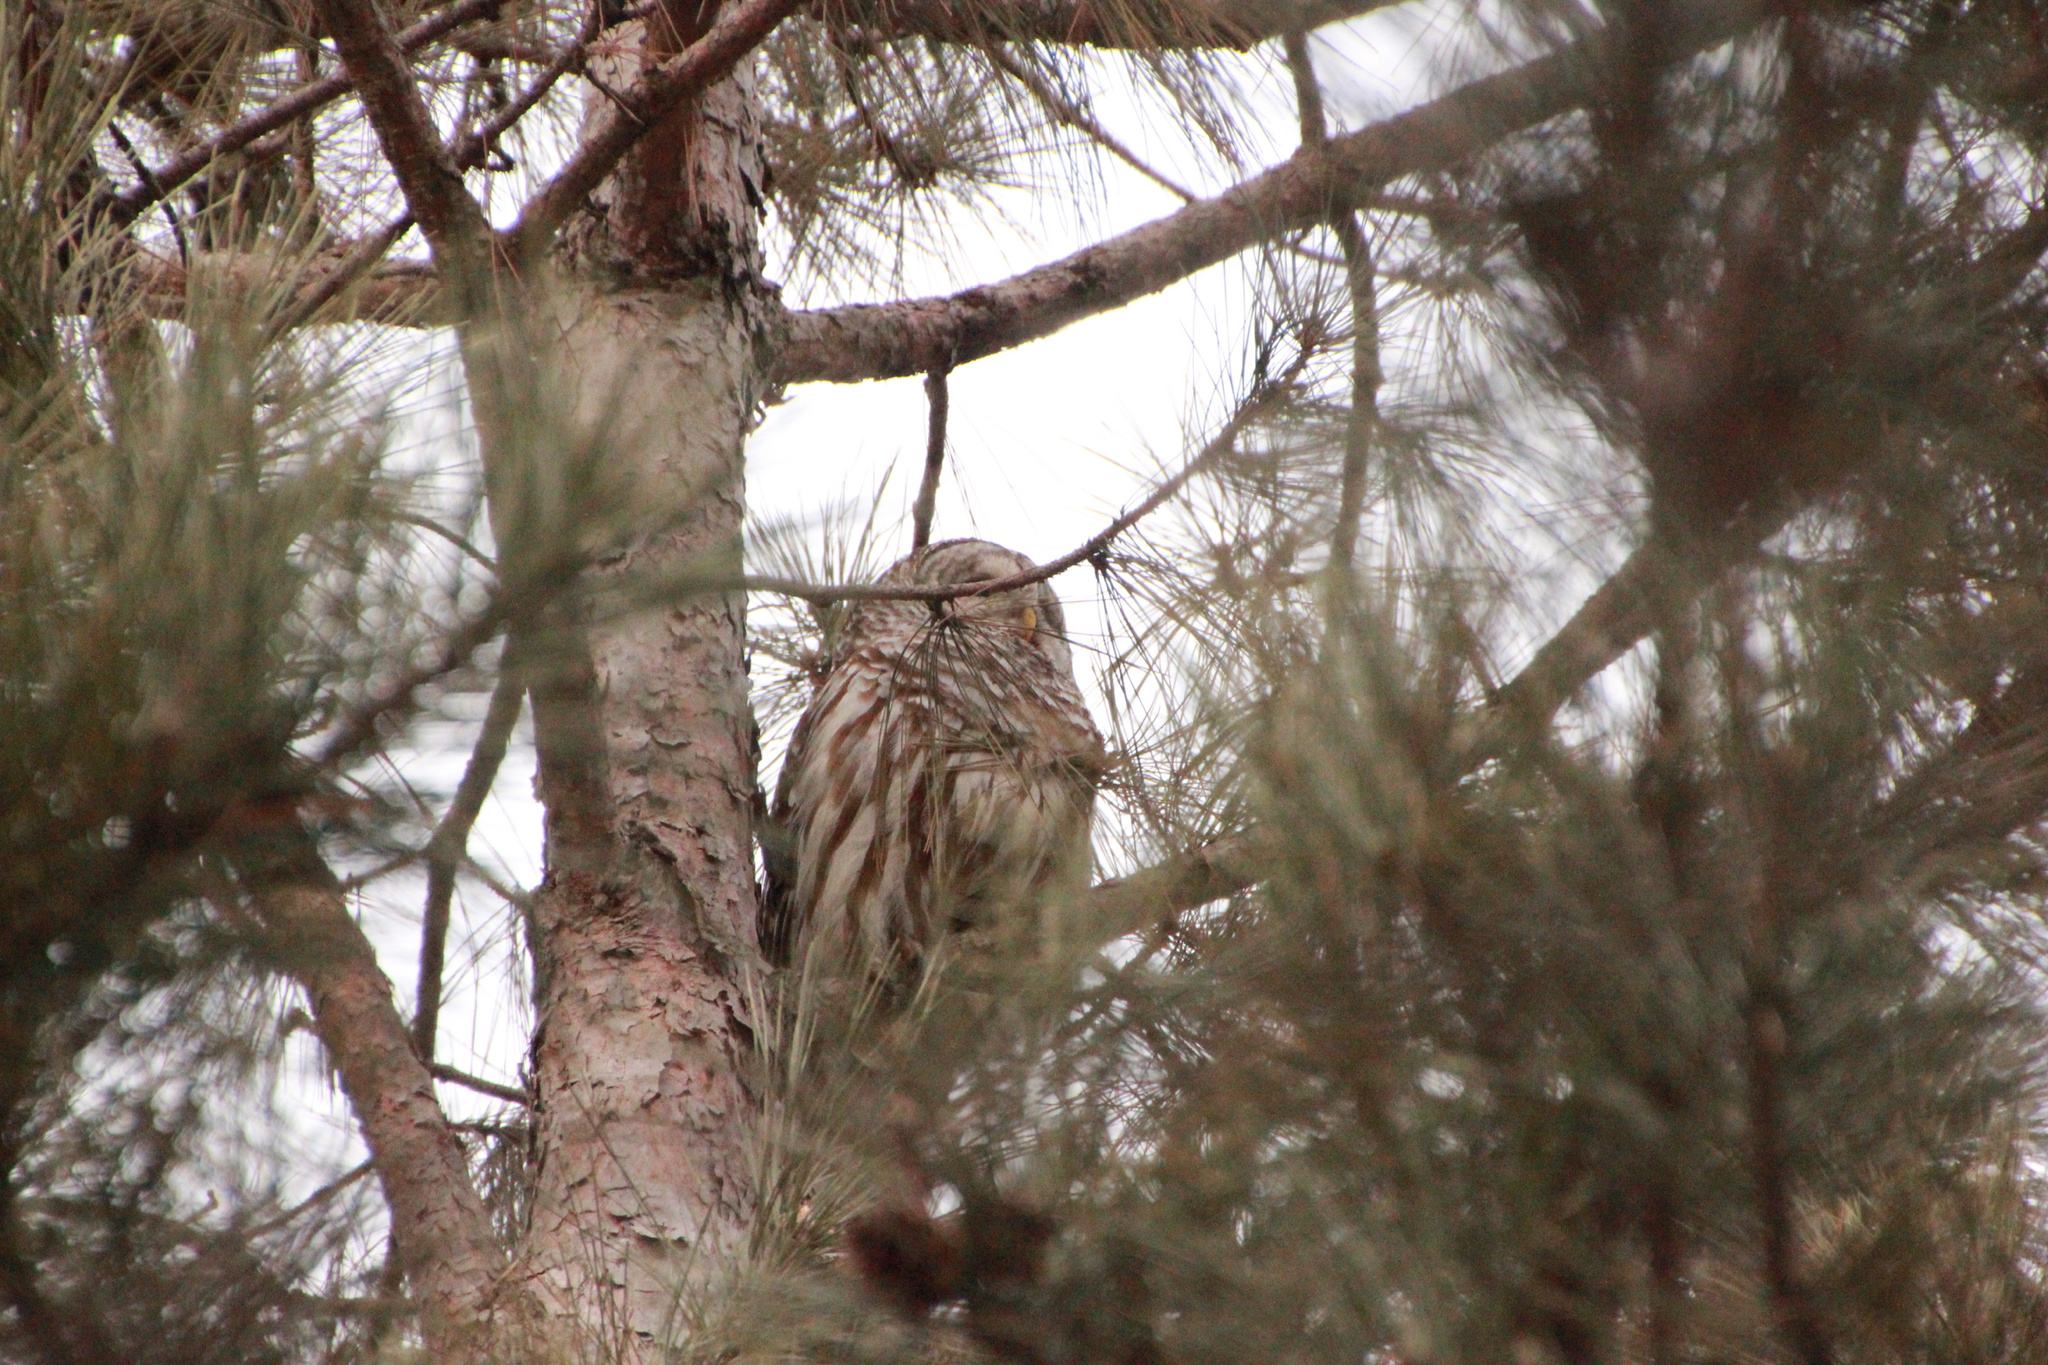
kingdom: Animalia
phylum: Chordata
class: Aves
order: Strigiformes
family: Strigidae
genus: Strix
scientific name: Strix varia
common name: Barred owl
